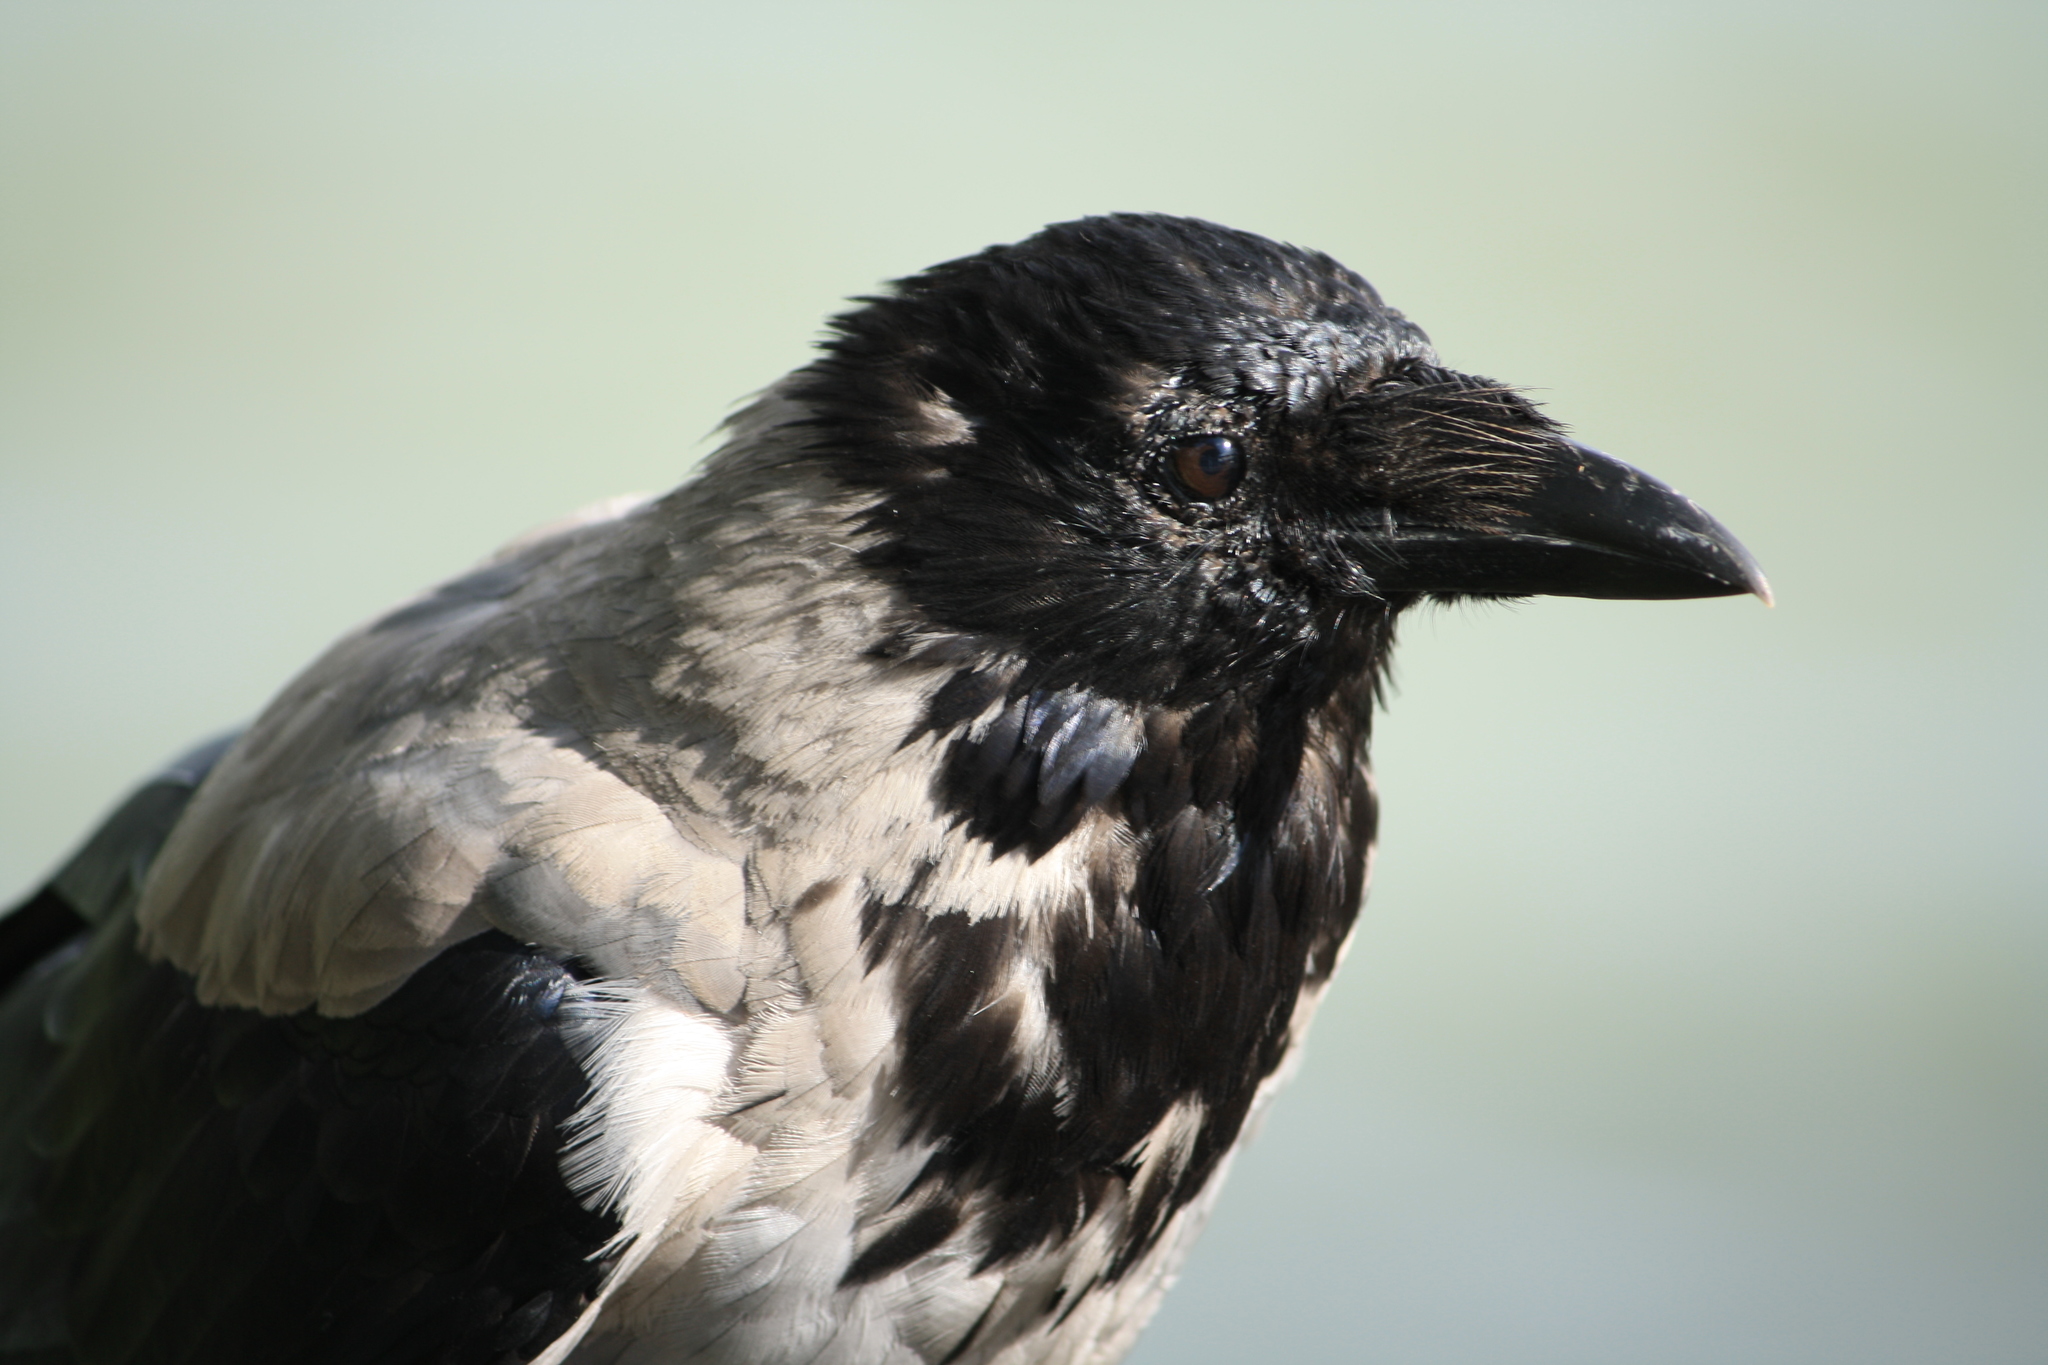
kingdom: Animalia
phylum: Chordata
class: Aves
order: Passeriformes
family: Corvidae
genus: Corvus
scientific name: Corvus cornix
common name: Hooded crow
